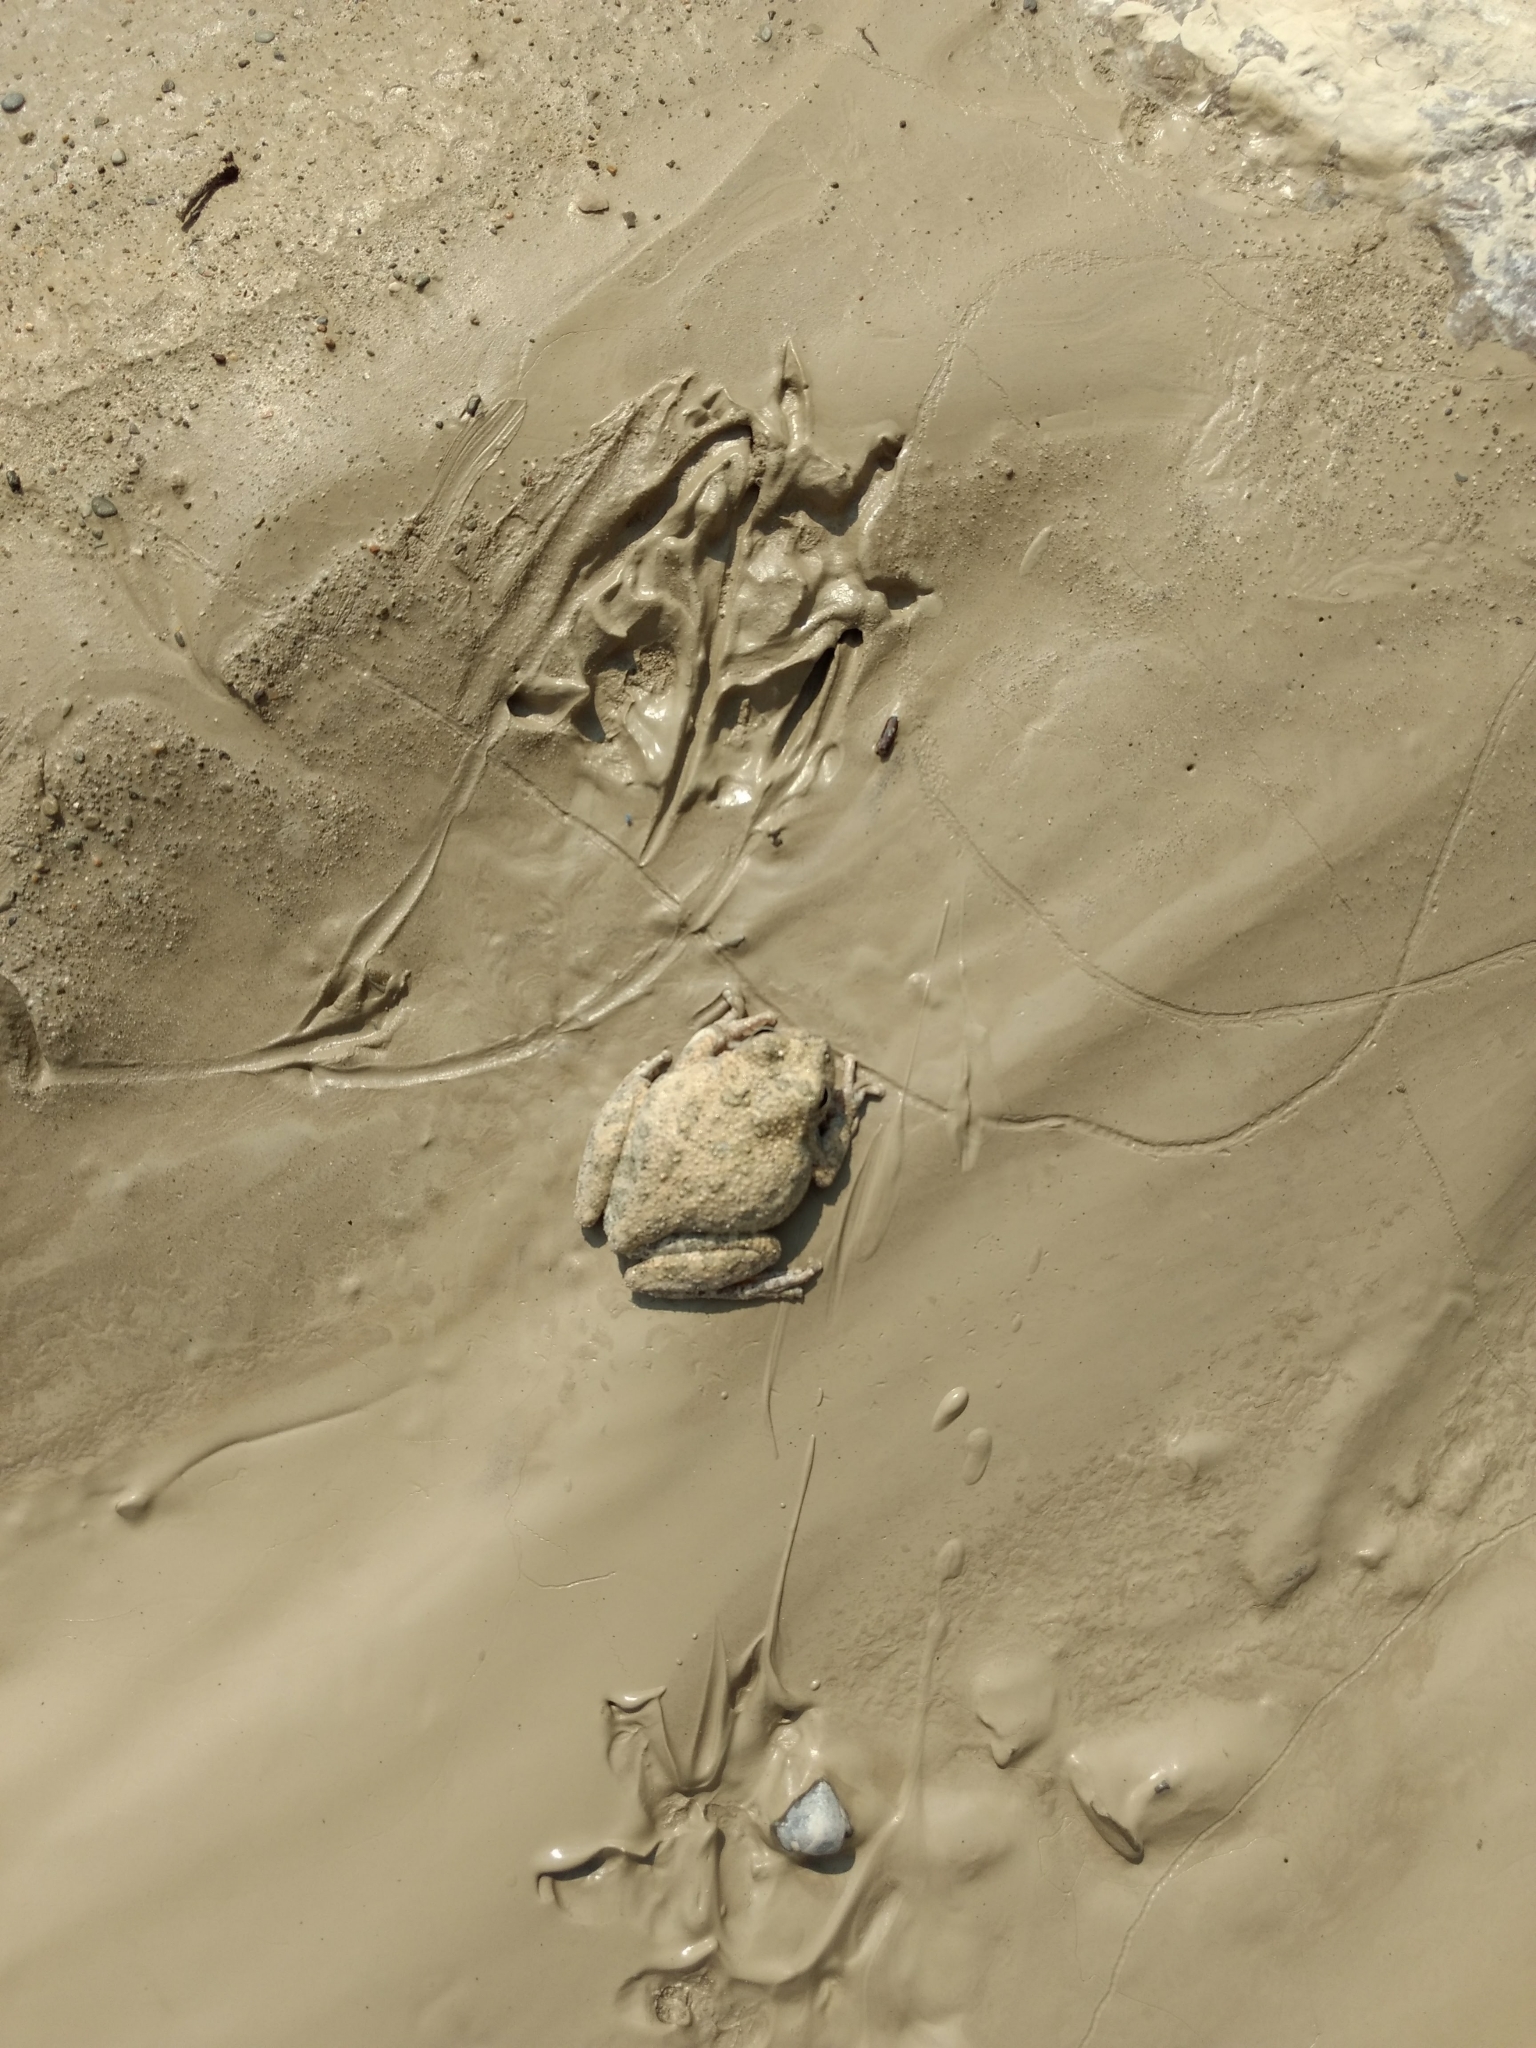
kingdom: Animalia
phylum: Chordata
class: Amphibia
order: Anura
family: Hylidae
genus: Dryophytes
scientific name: Dryophytes arenicolor
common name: Canyon treefrog
